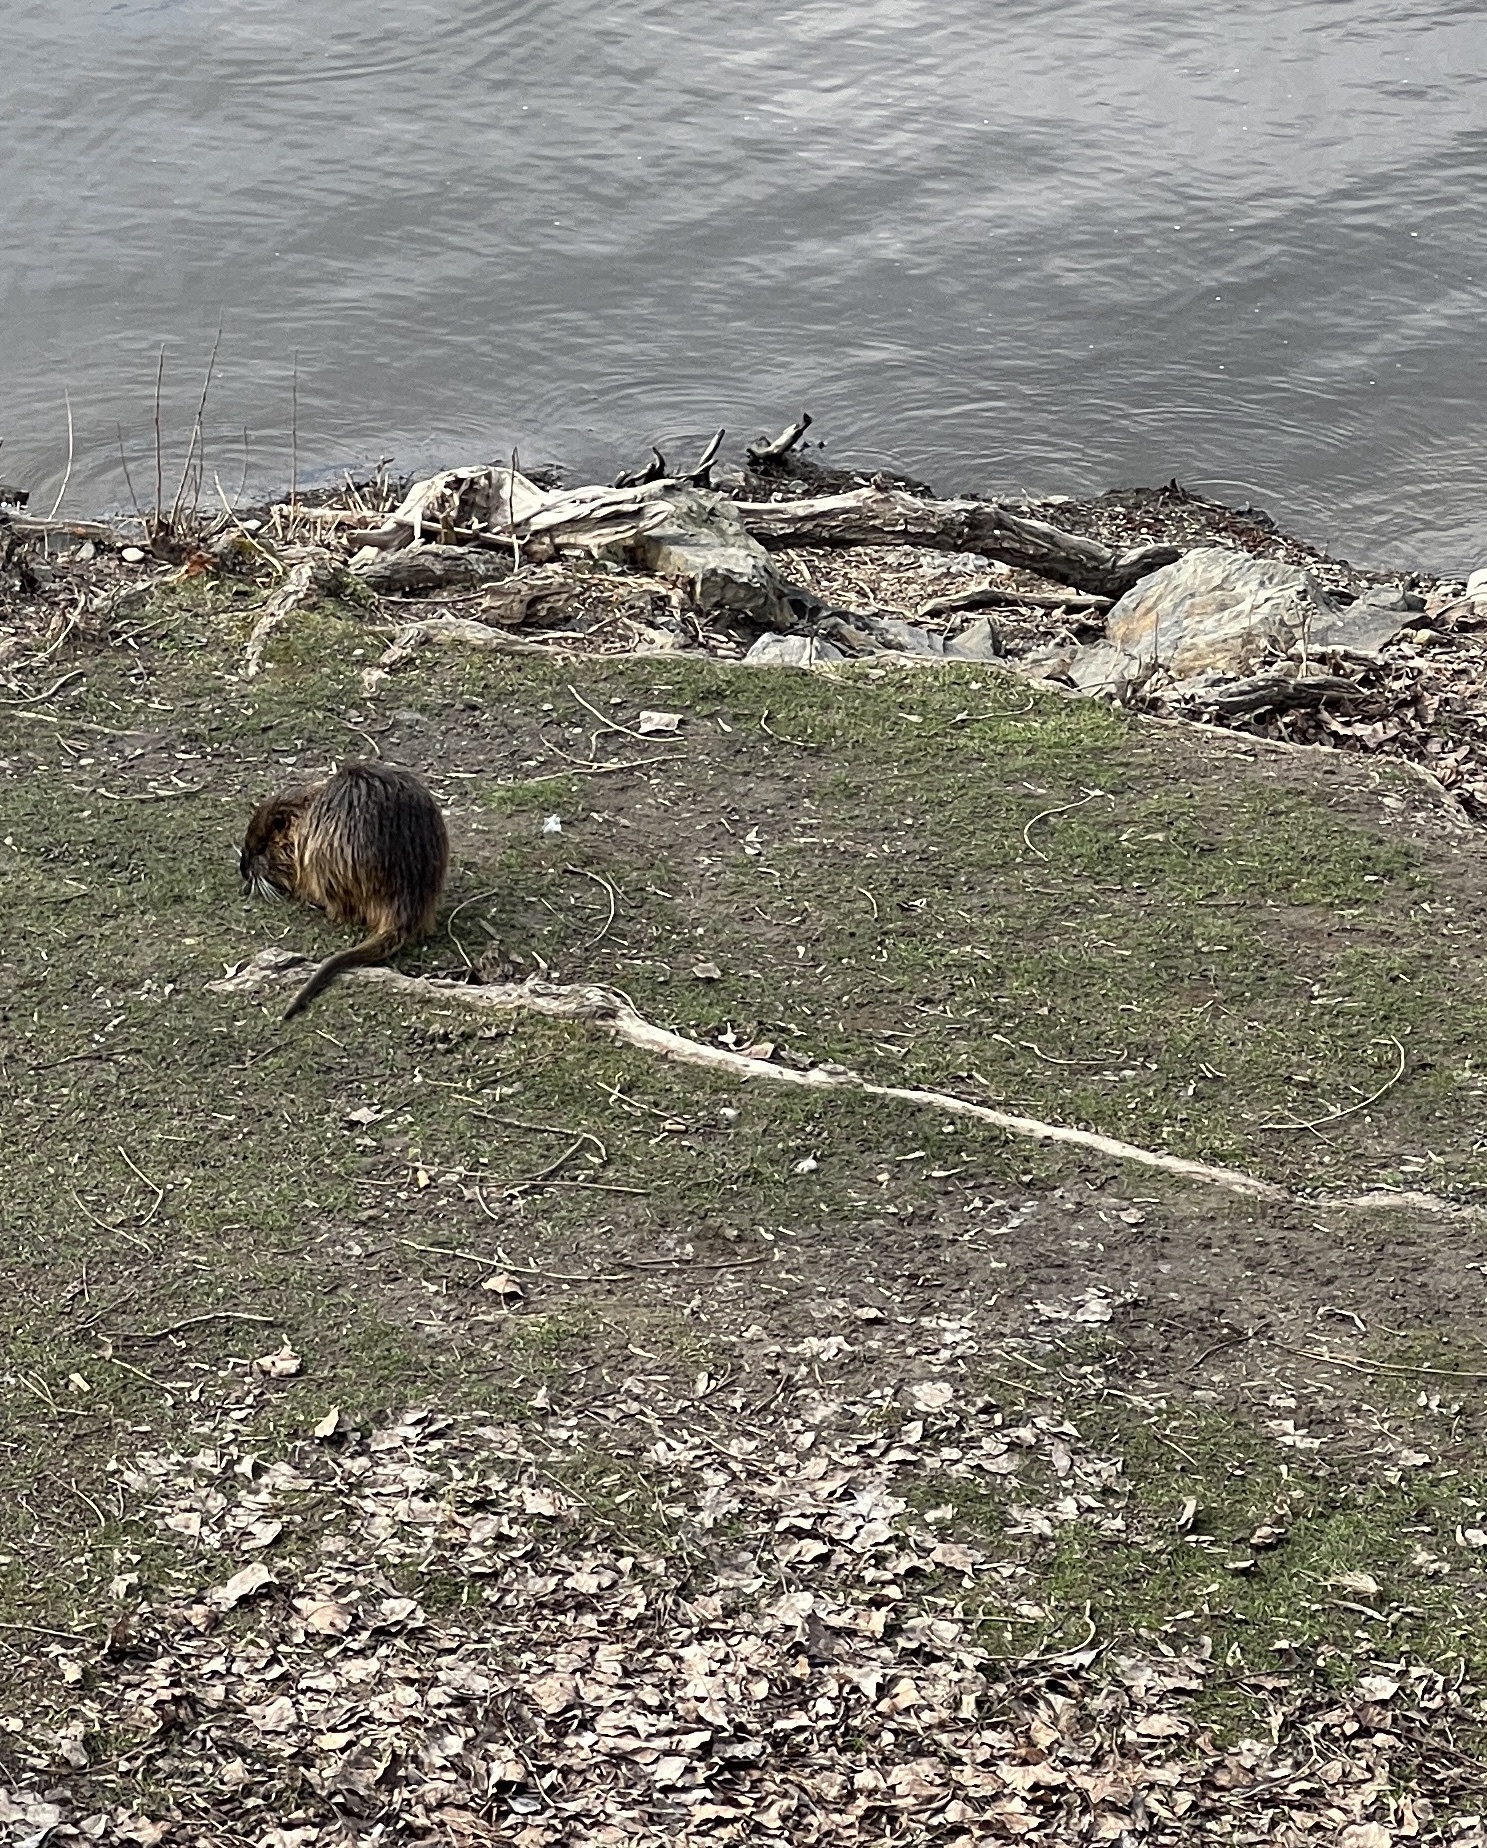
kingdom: Animalia
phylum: Chordata
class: Mammalia
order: Rodentia
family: Myocastoridae
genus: Myocastor
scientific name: Myocastor coypus
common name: Coypu
